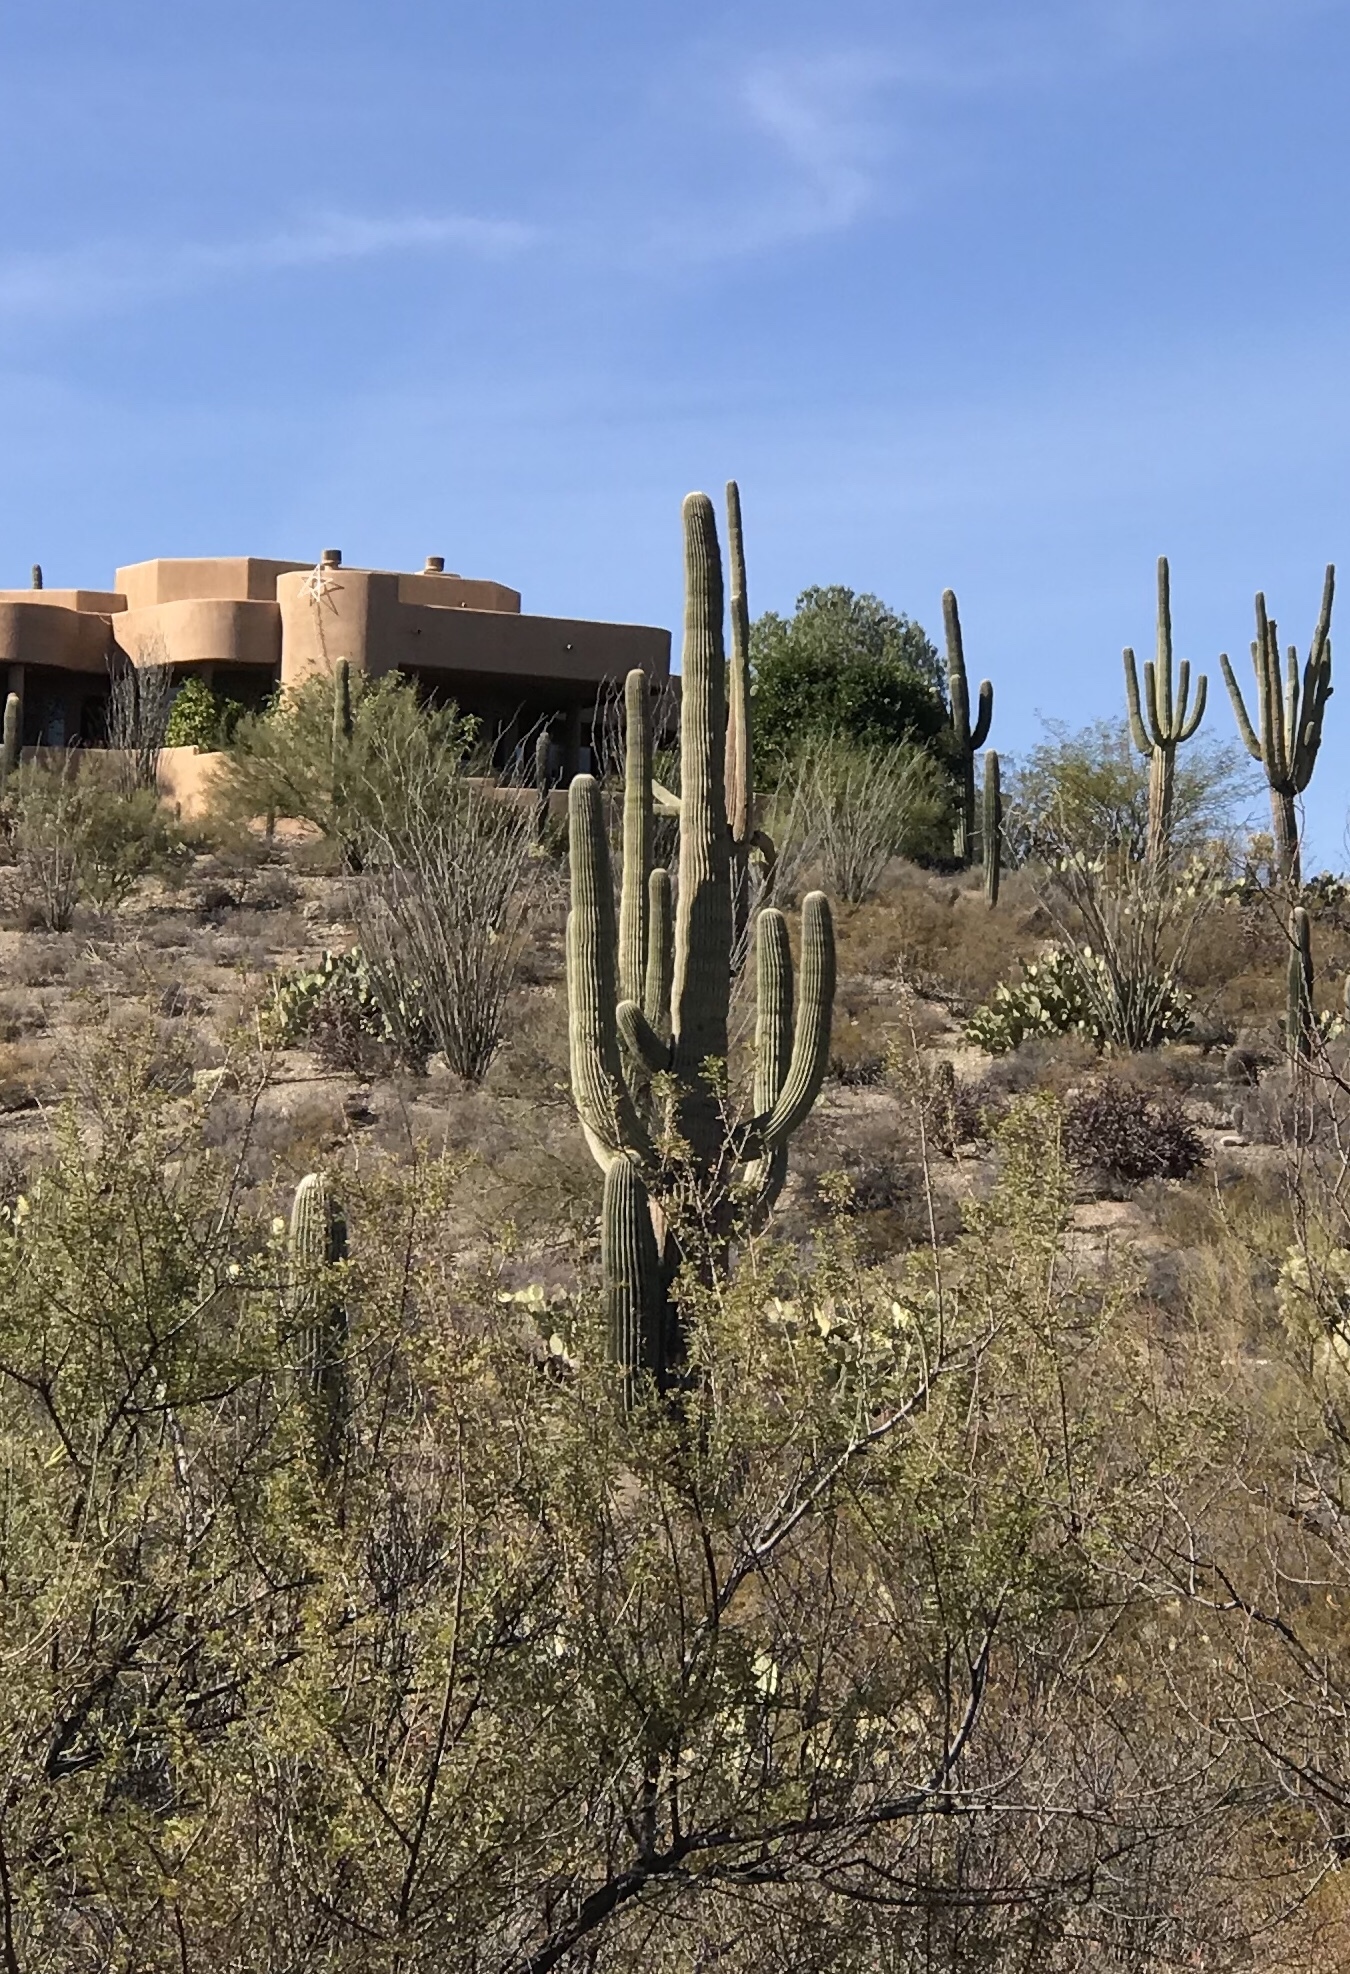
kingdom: Plantae
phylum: Tracheophyta
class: Magnoliopsida
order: Caryophyllales
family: Cactaceae
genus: Carnegiea
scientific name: Carnegiea gigantea
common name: Saguaro
